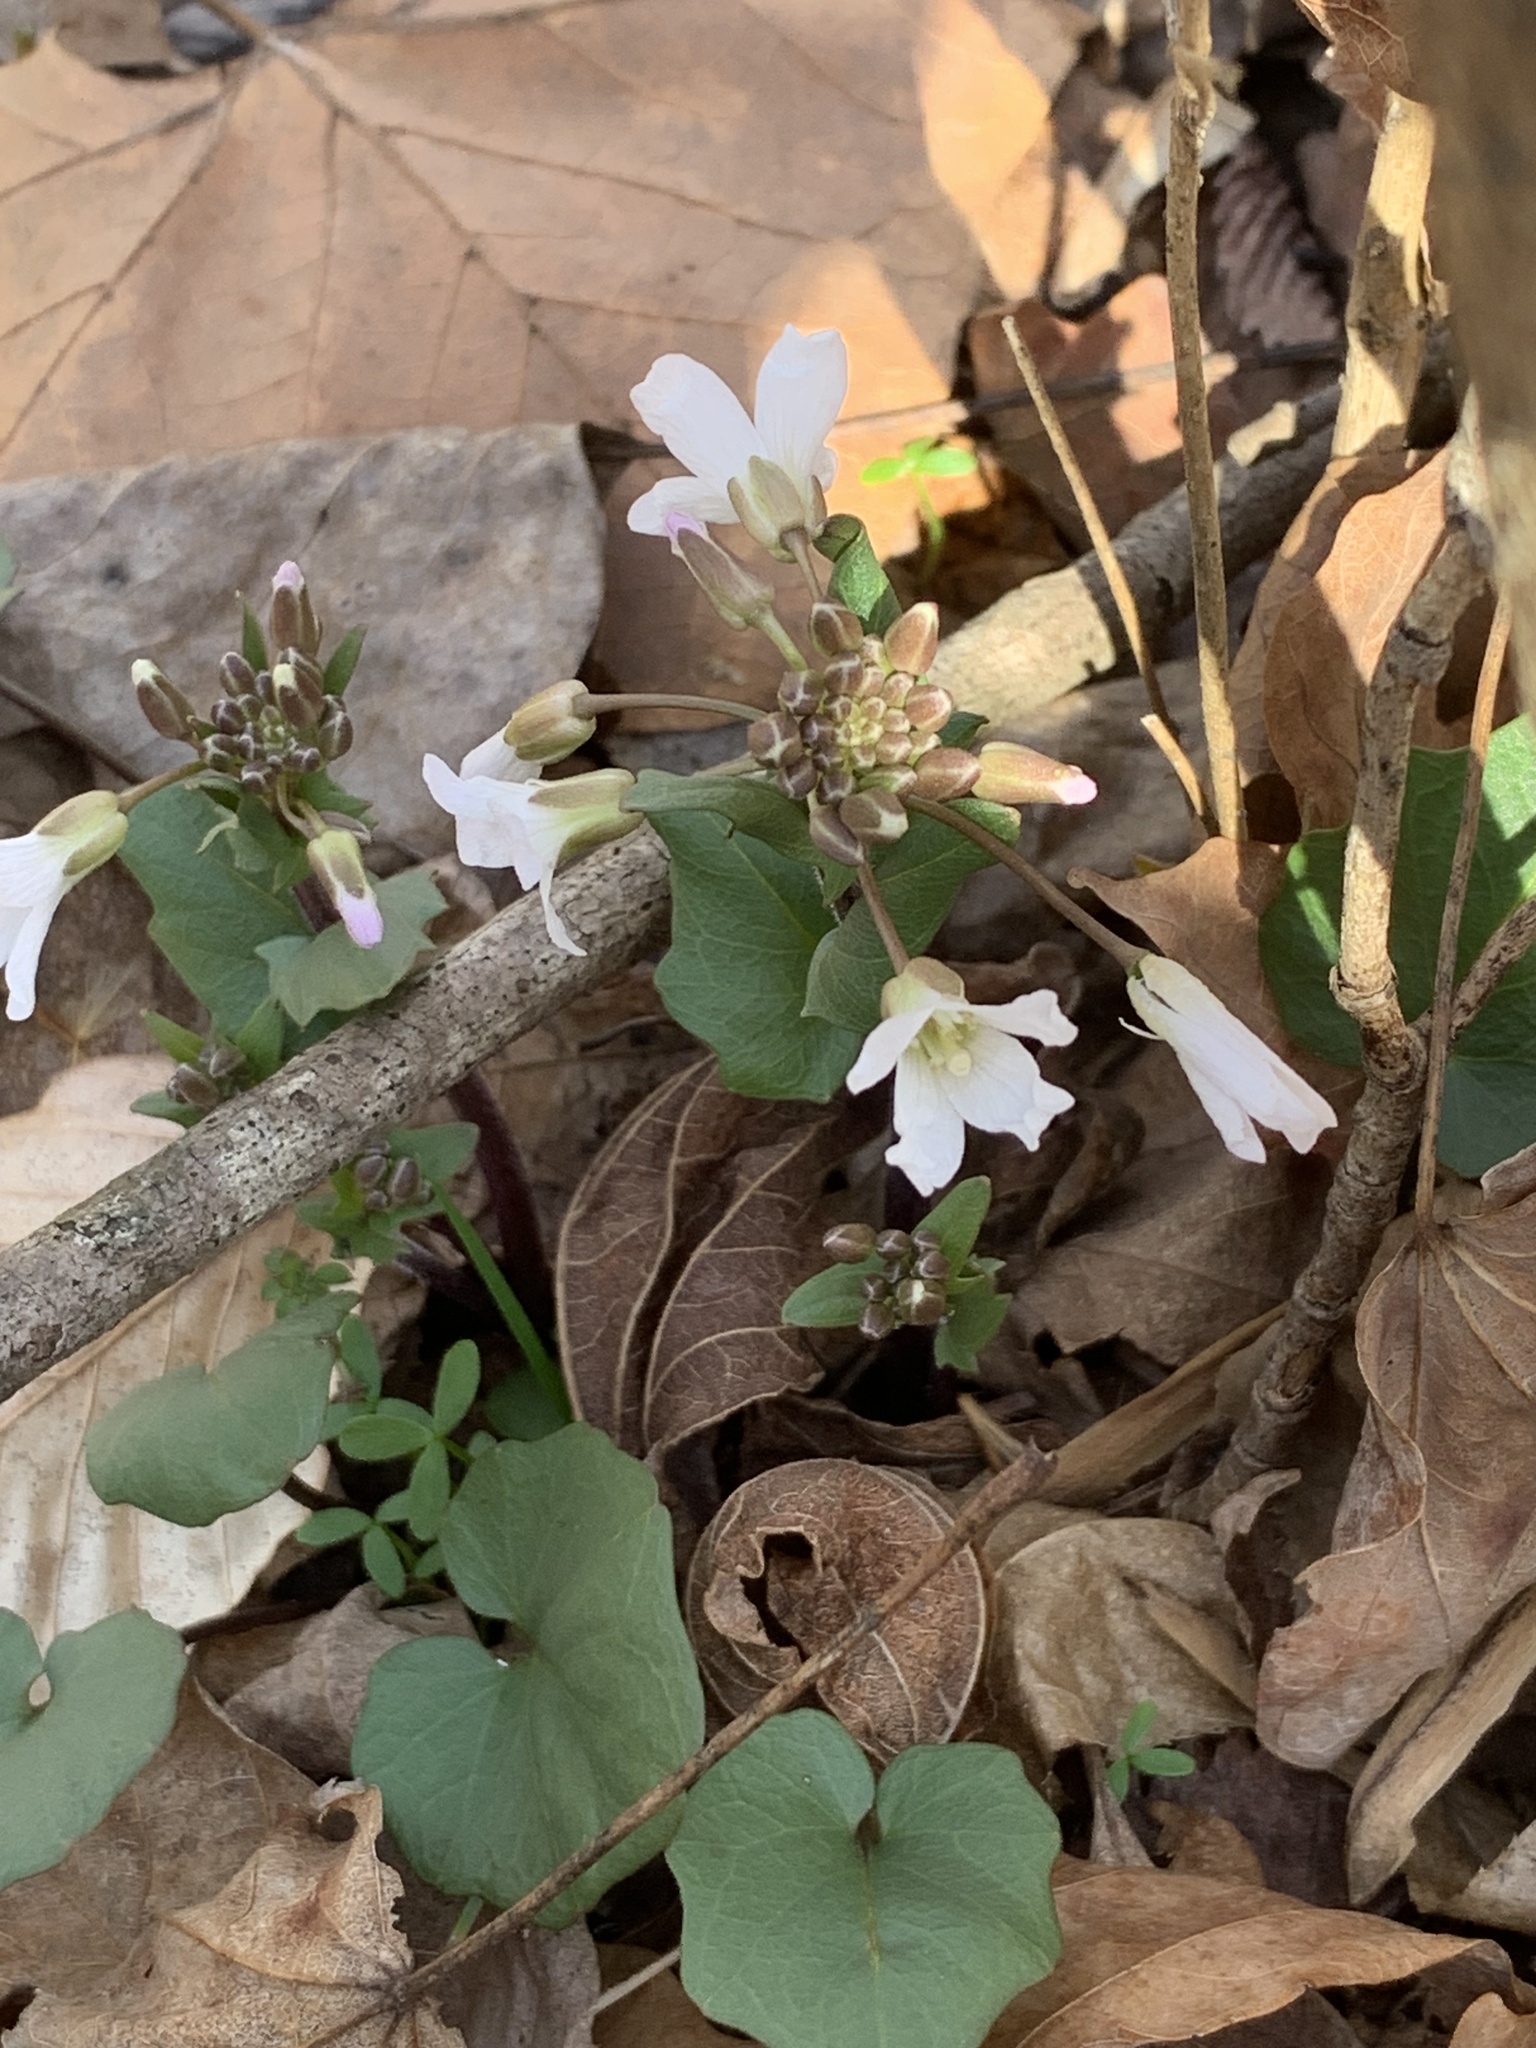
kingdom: Plantae
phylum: Tracheophyta
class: Magnoliopsida
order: Brassicales
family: Brassicaceae
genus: Cardamine
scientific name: Cardamine douglassii
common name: Purple cress
